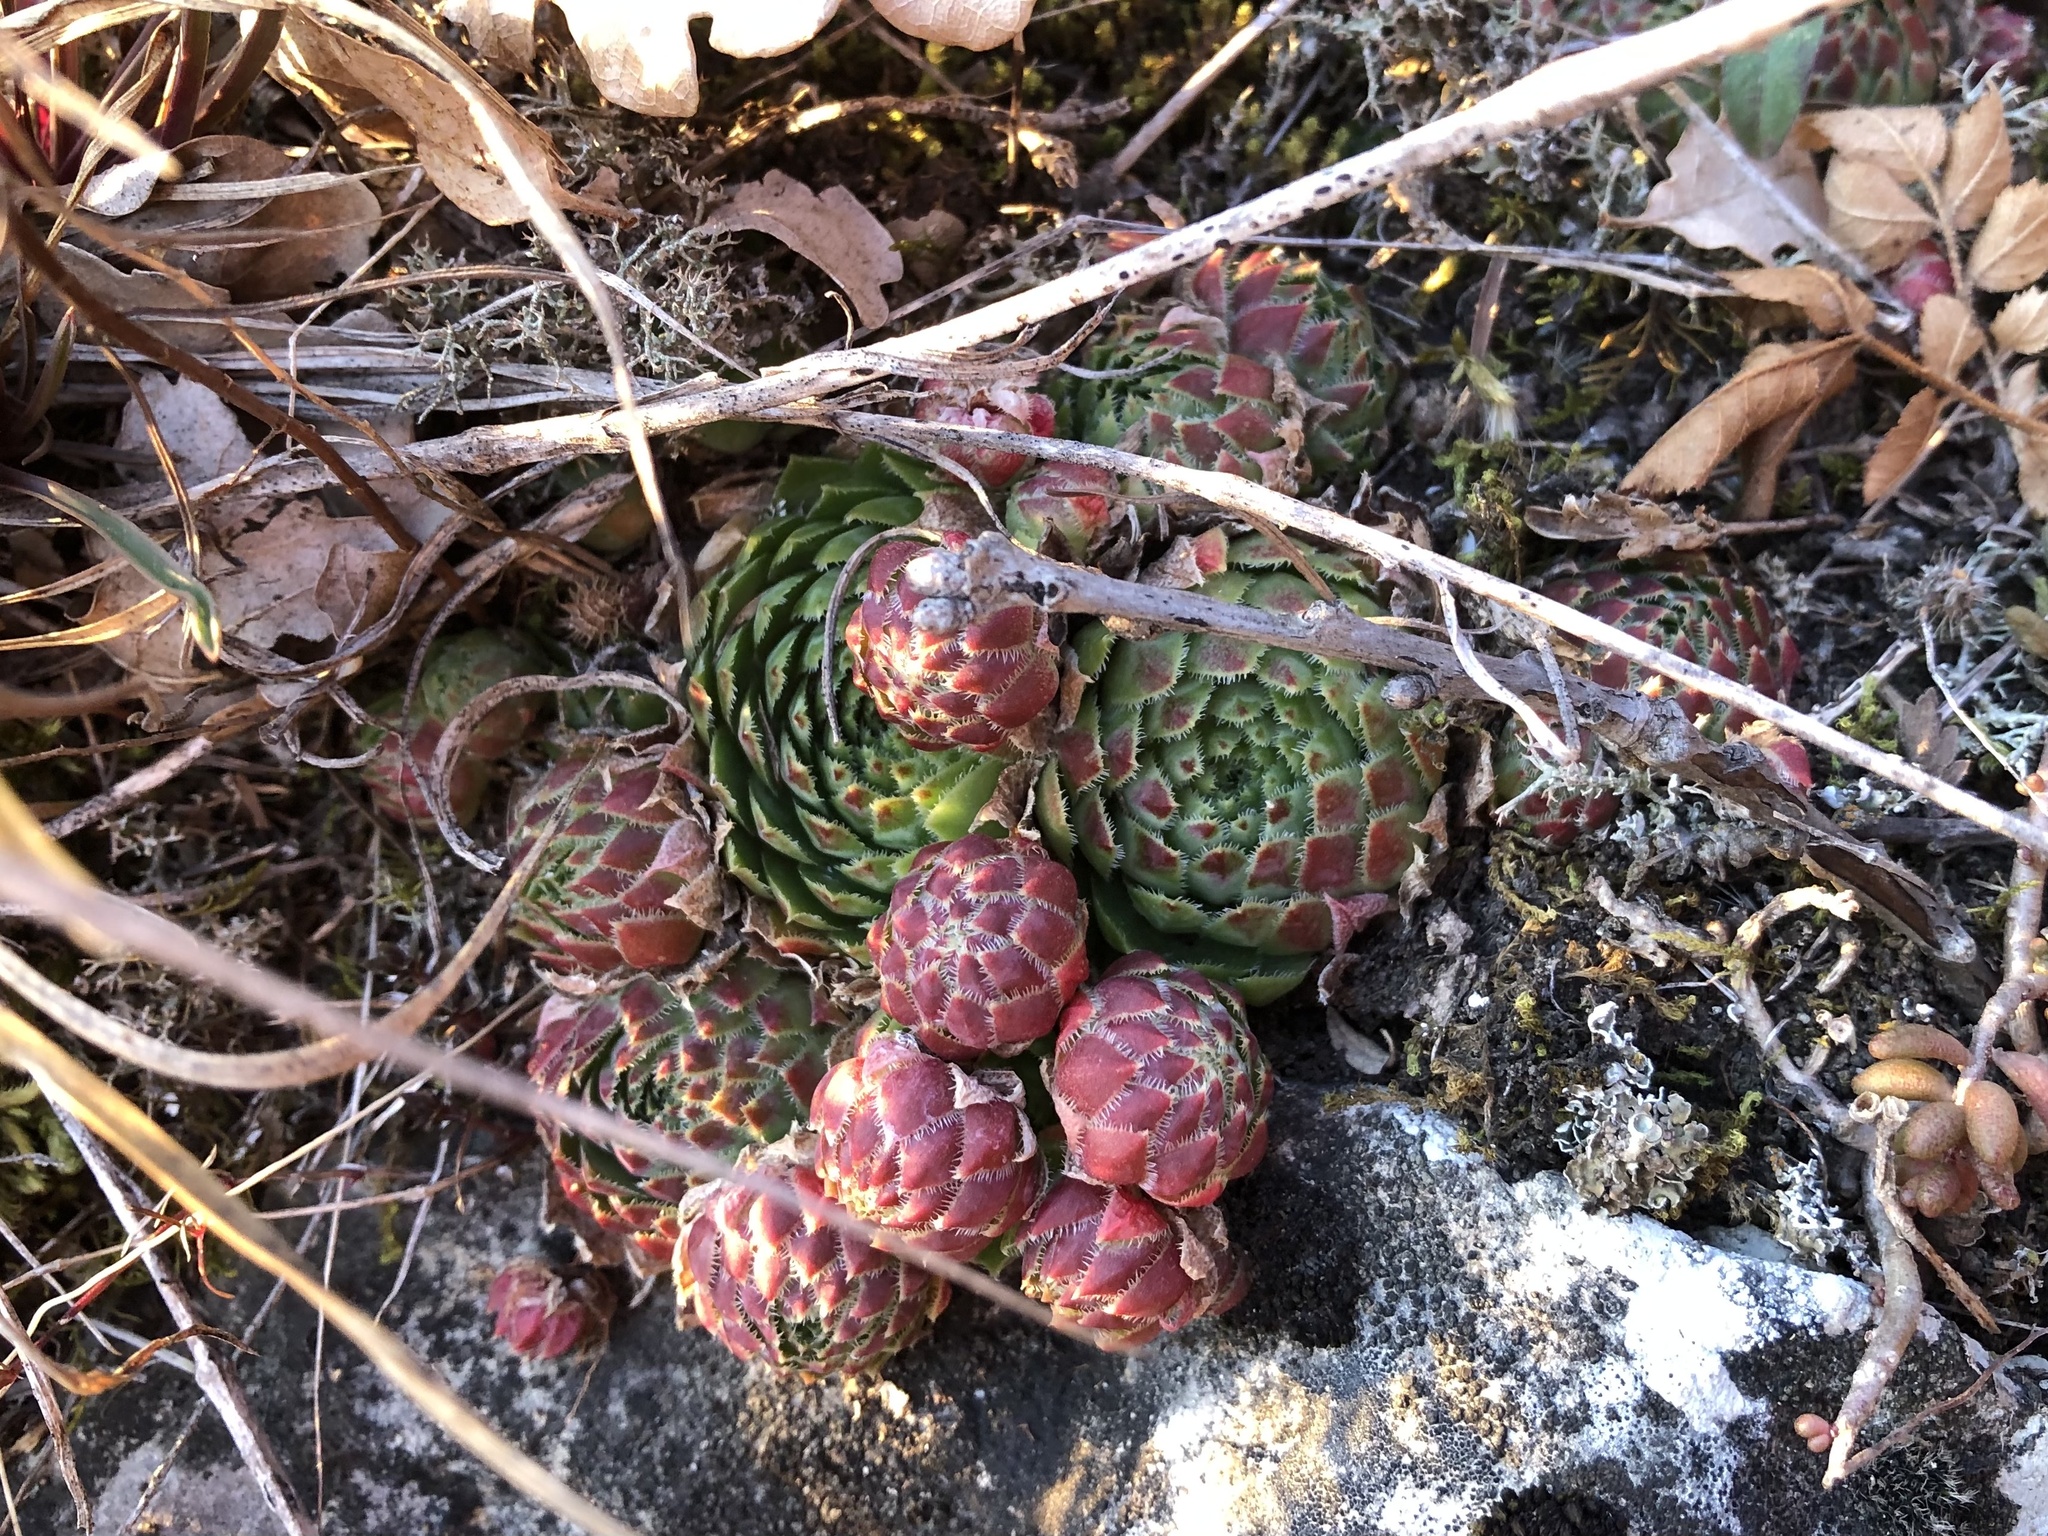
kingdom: Plantae
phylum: Tracheophyta
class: Magnoliopsida
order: Saxifragales
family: Crassulaceae
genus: Sempervivum
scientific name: Sempervivum globiferum
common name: Rolling hen-and-chicks
